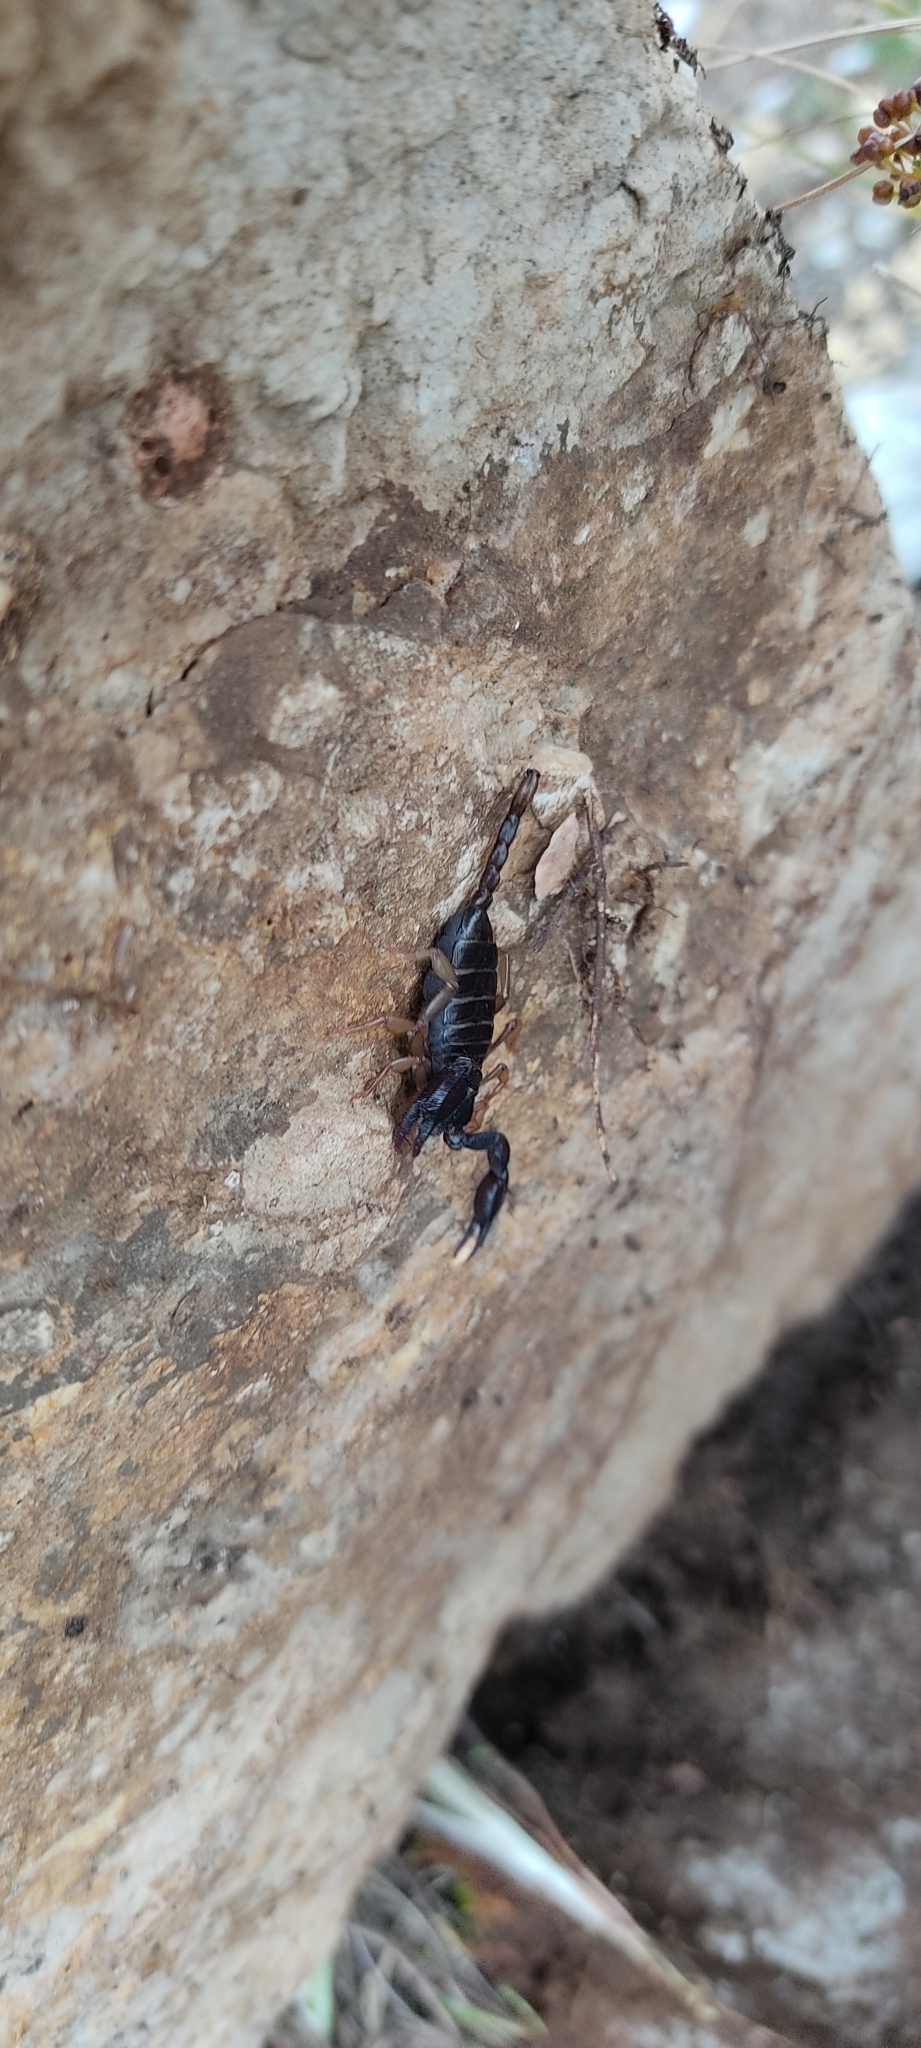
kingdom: Animalia
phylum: Arthropoda
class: Arachnida
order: Scorpiones
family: Euscorpiidae
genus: Euscorpius
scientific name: Euscorpius niciensis
